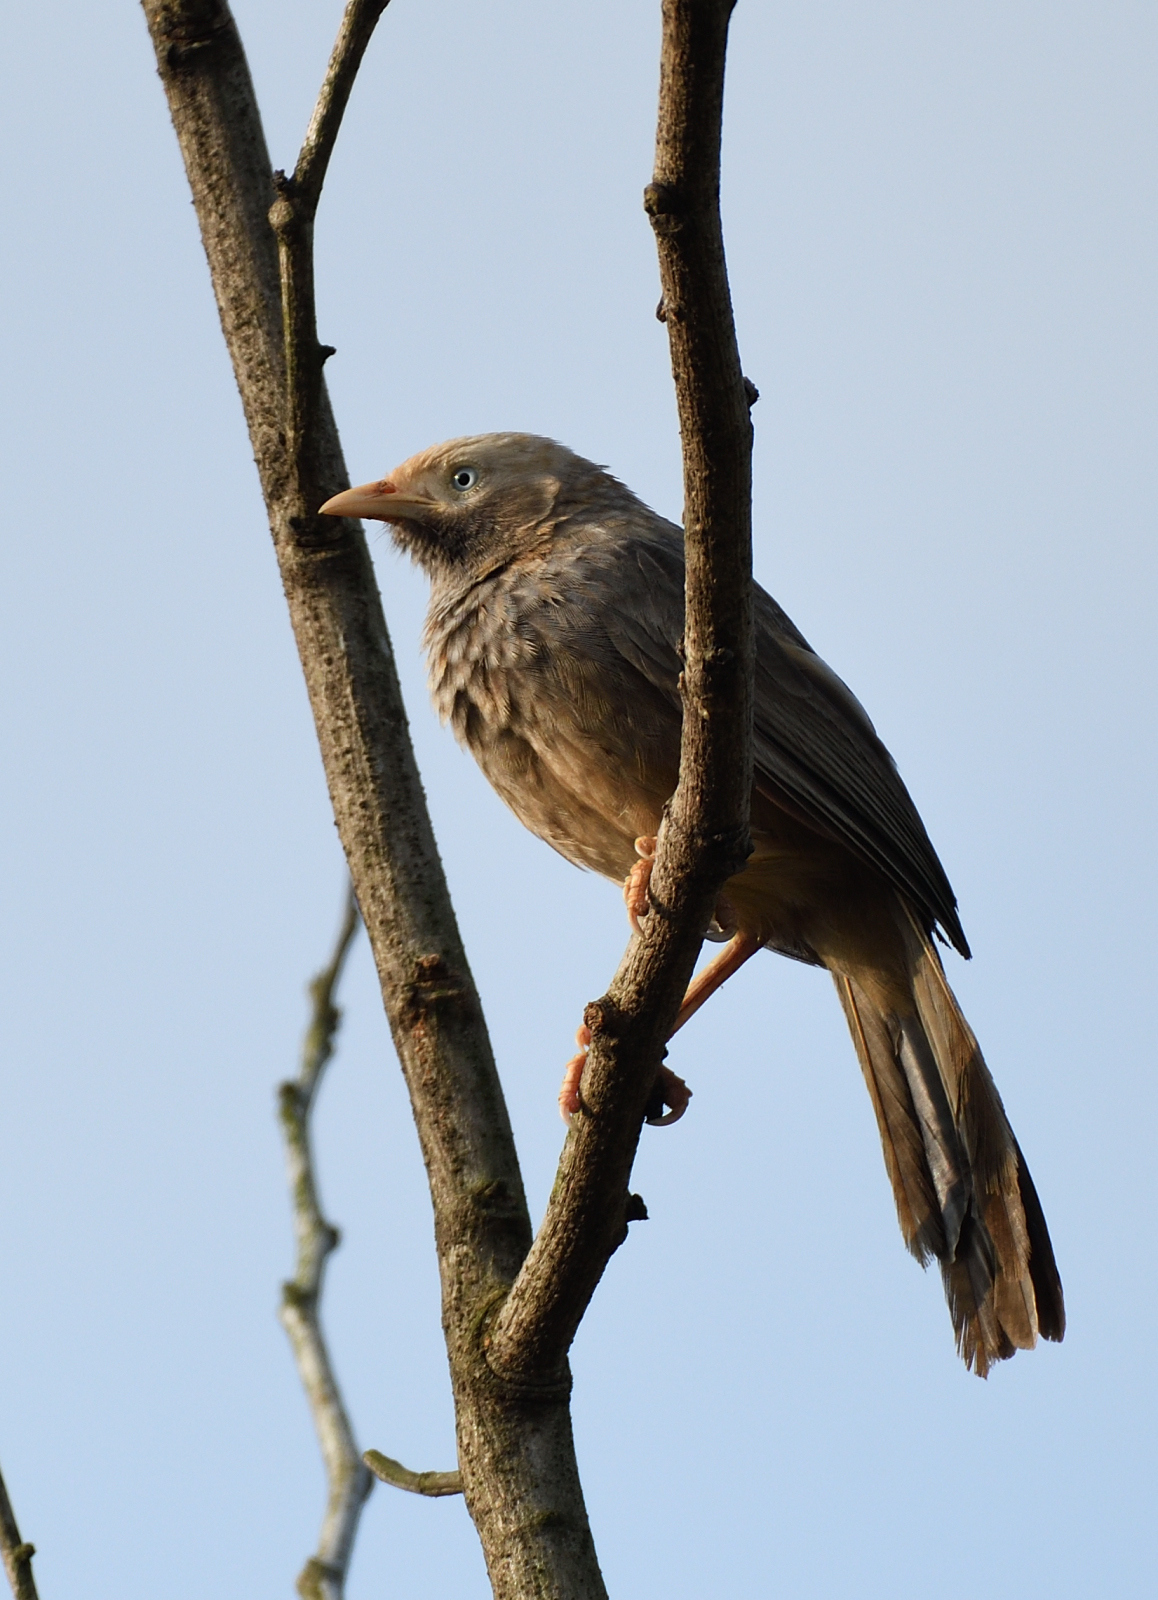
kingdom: Animalia
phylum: Chordata
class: Aves
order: Passeriformes
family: Leiothrichidae
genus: Turdoides
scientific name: Turdoides affinis
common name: Yellow-billed babbler
